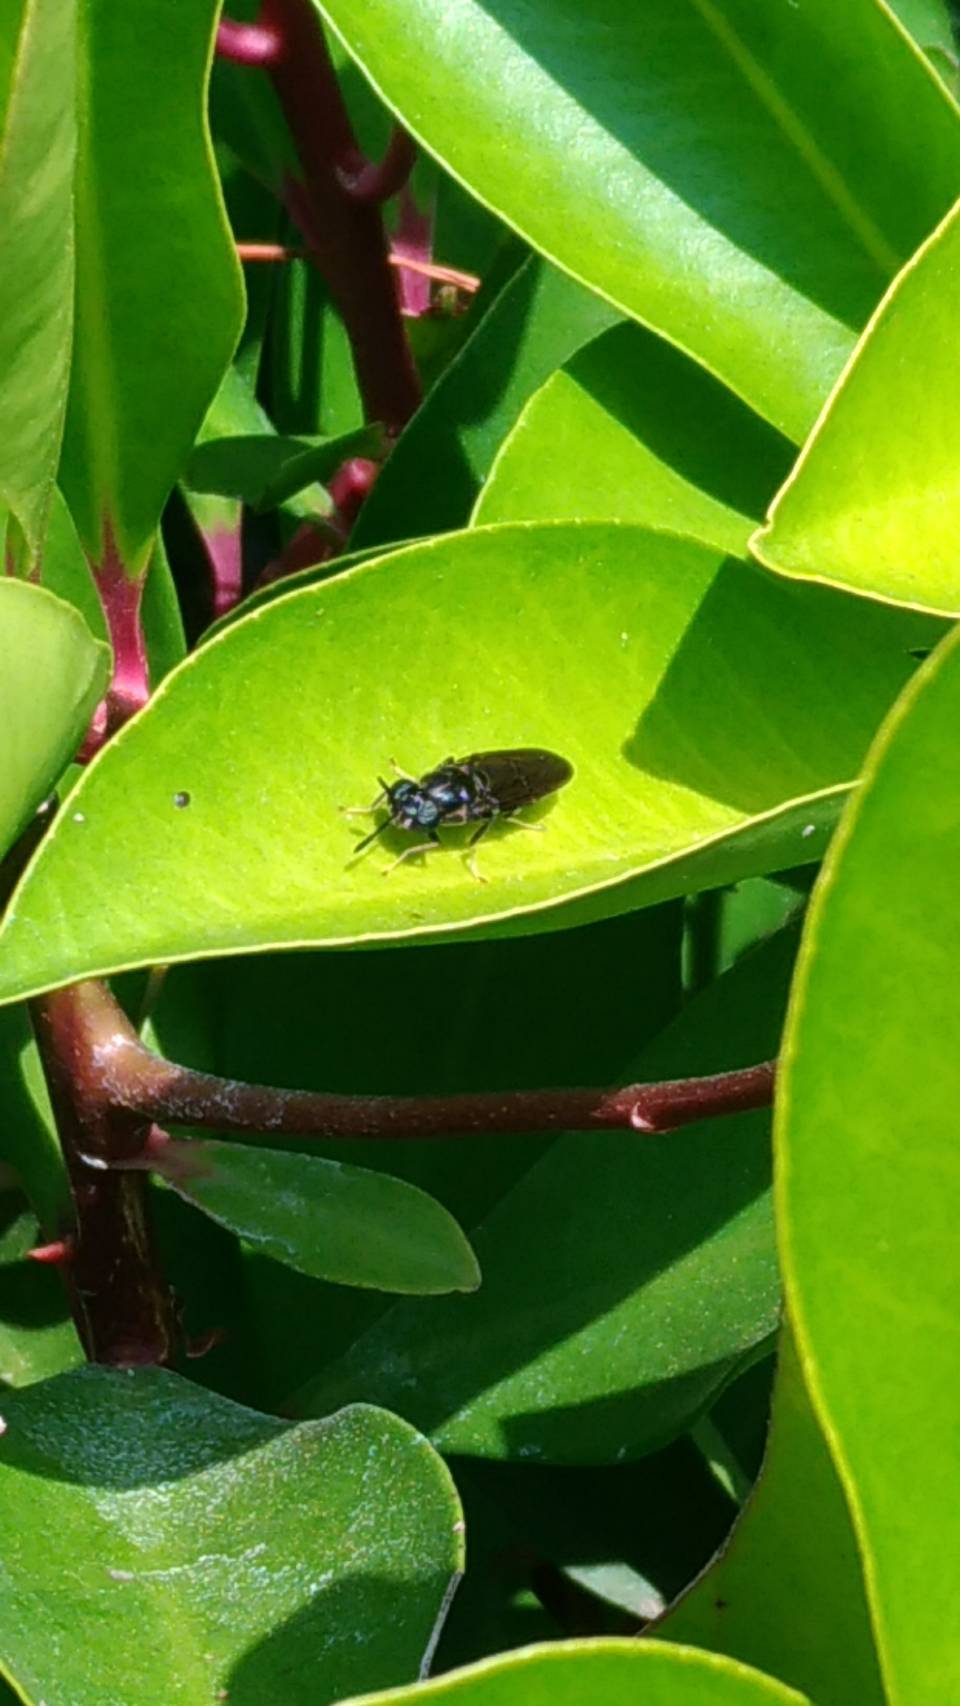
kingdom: Animalia
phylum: Arthropoda
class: Insecta
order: Diptera
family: Stratiomyidae
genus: Hermetia
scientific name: Hermetia illucens
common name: Black soldier fly
